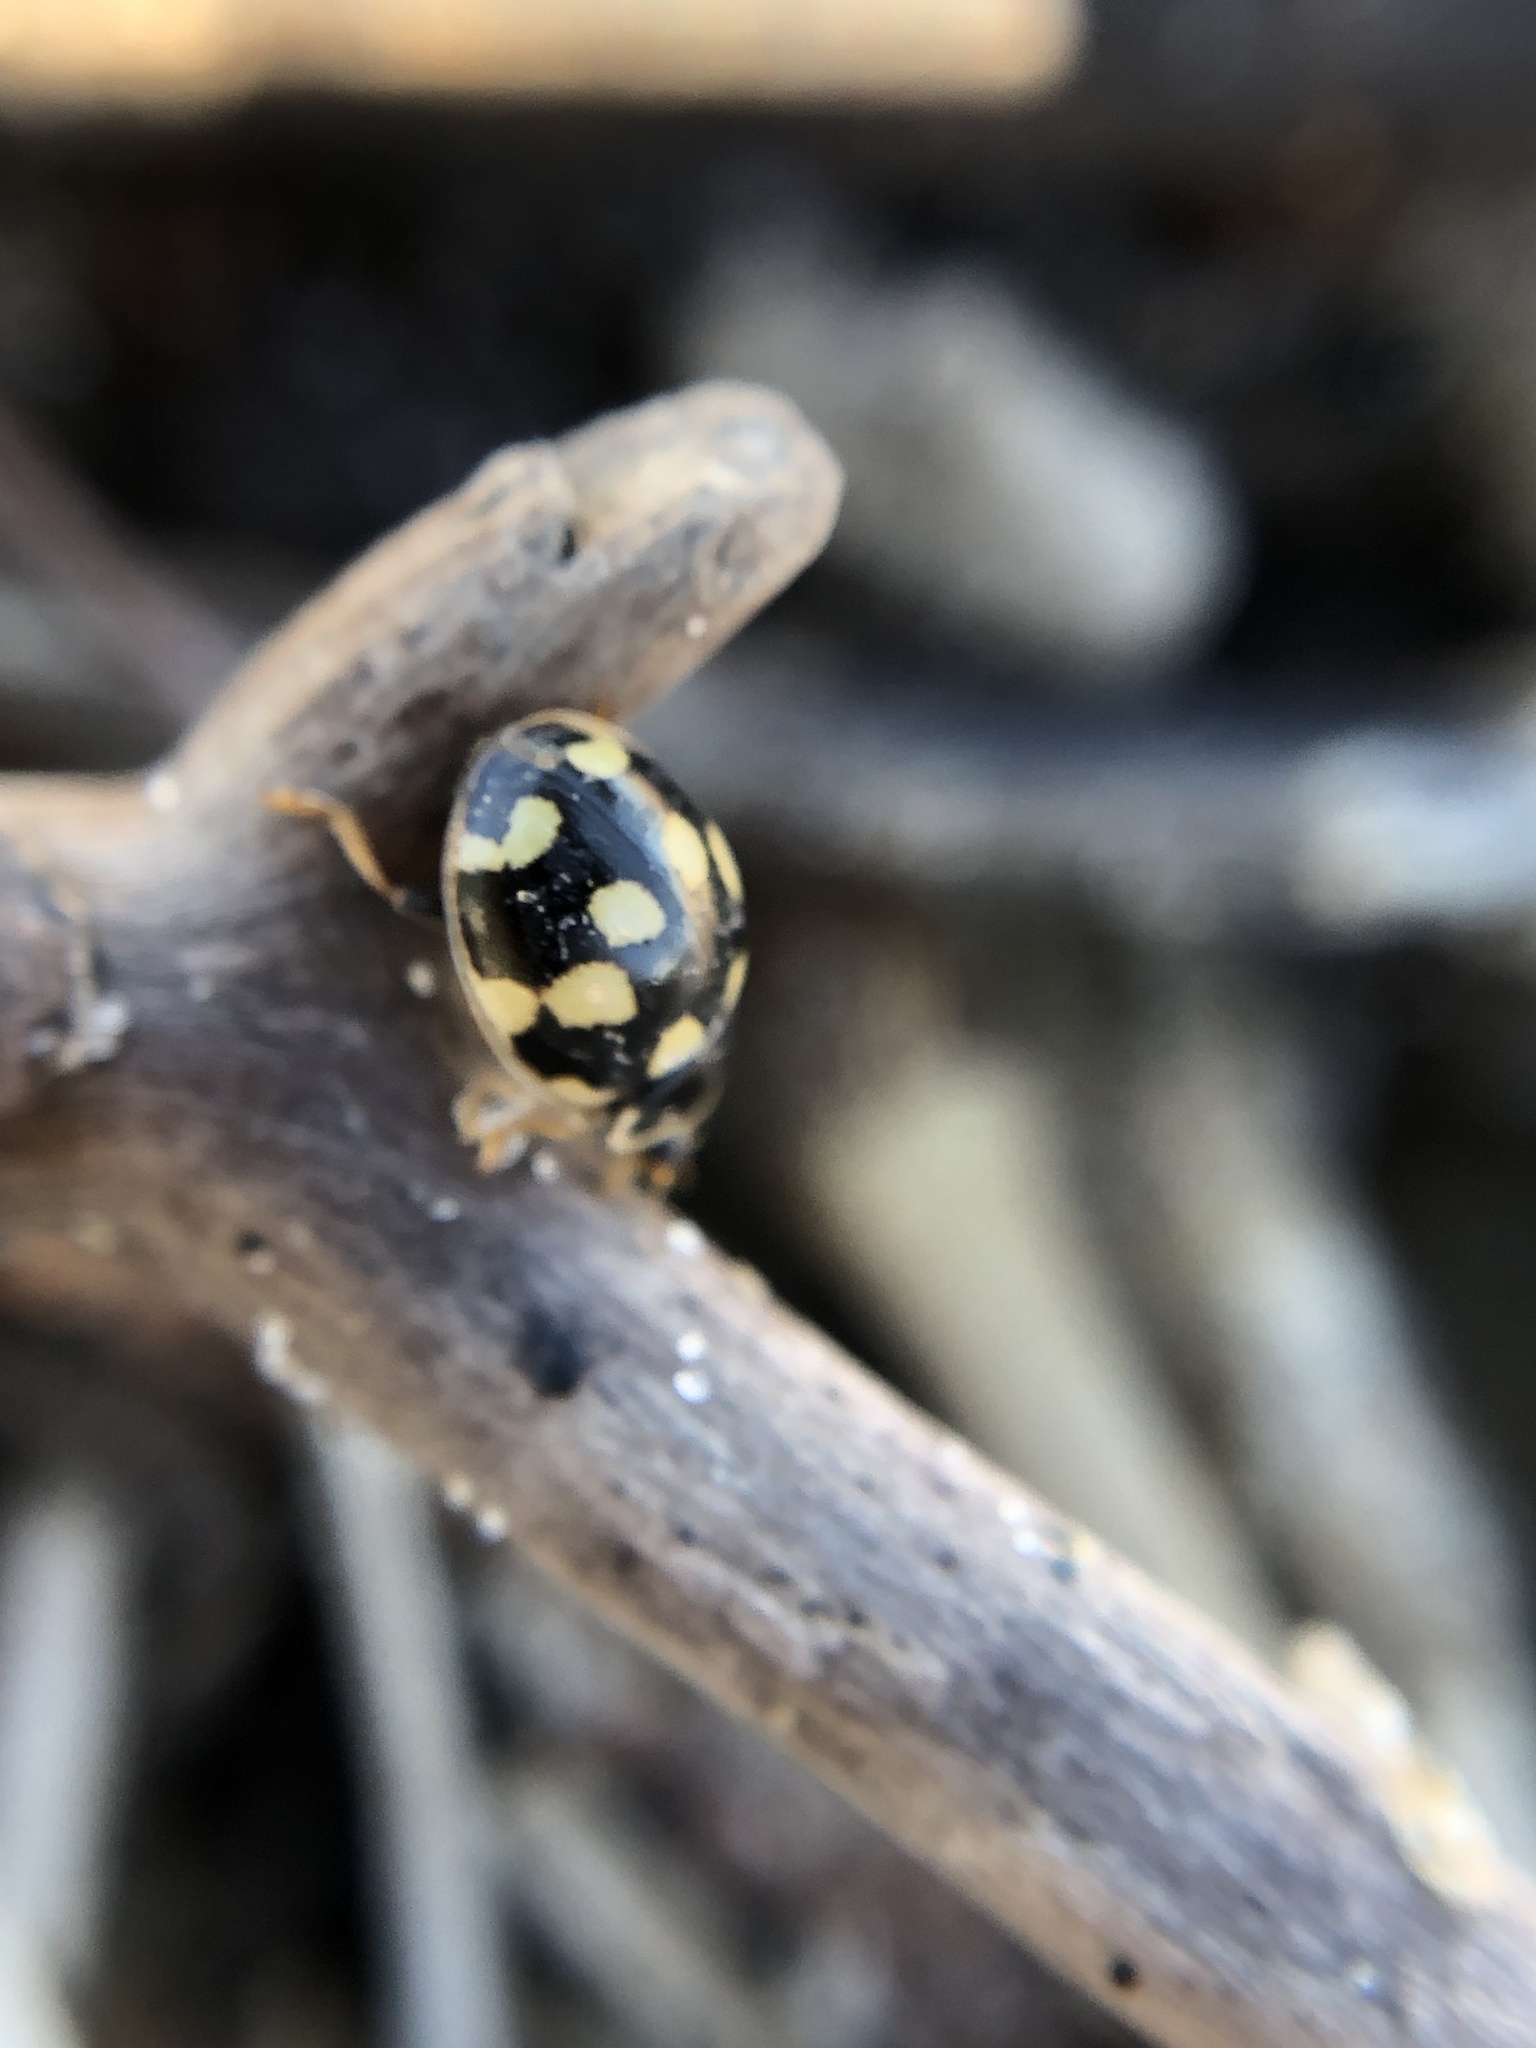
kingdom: Animalia
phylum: Arthropoda
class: Insecta
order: Coleoptera
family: Coccinellidae
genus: Propylaea
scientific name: Propylaea quatuordecimpunctata
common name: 14-spotted ladybird beetle
